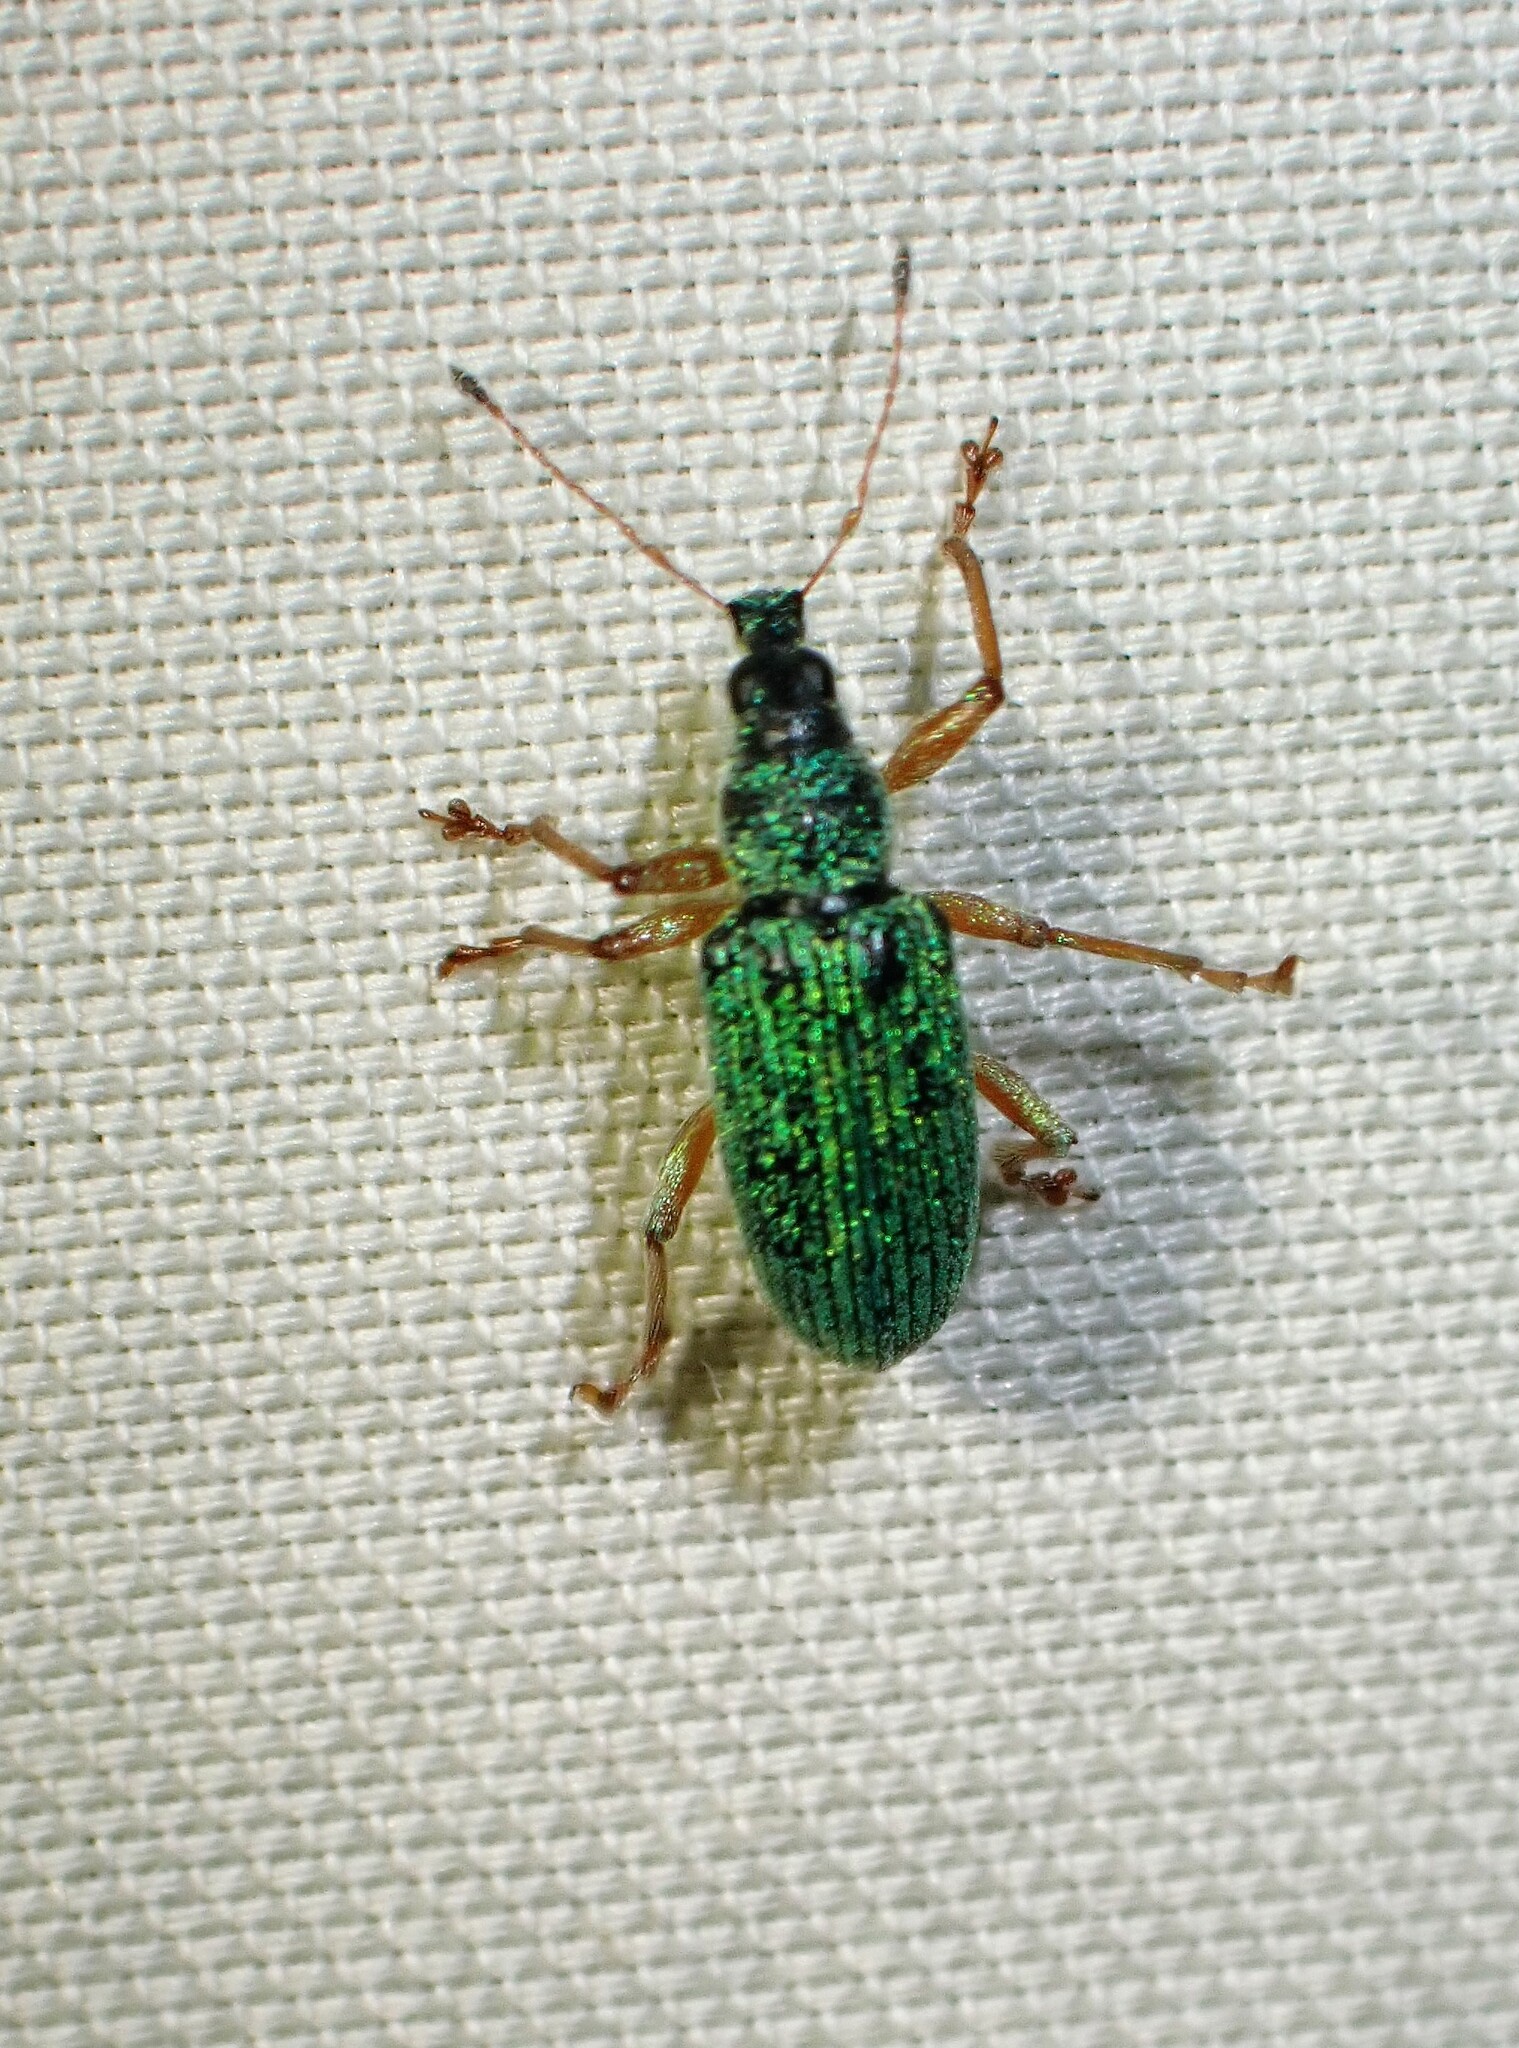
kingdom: Animalia
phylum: Arthropoda
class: Insecta
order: Coleoptera
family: Curculionidae
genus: Polydrusus
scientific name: Polydrusus formosus
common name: Weevil
